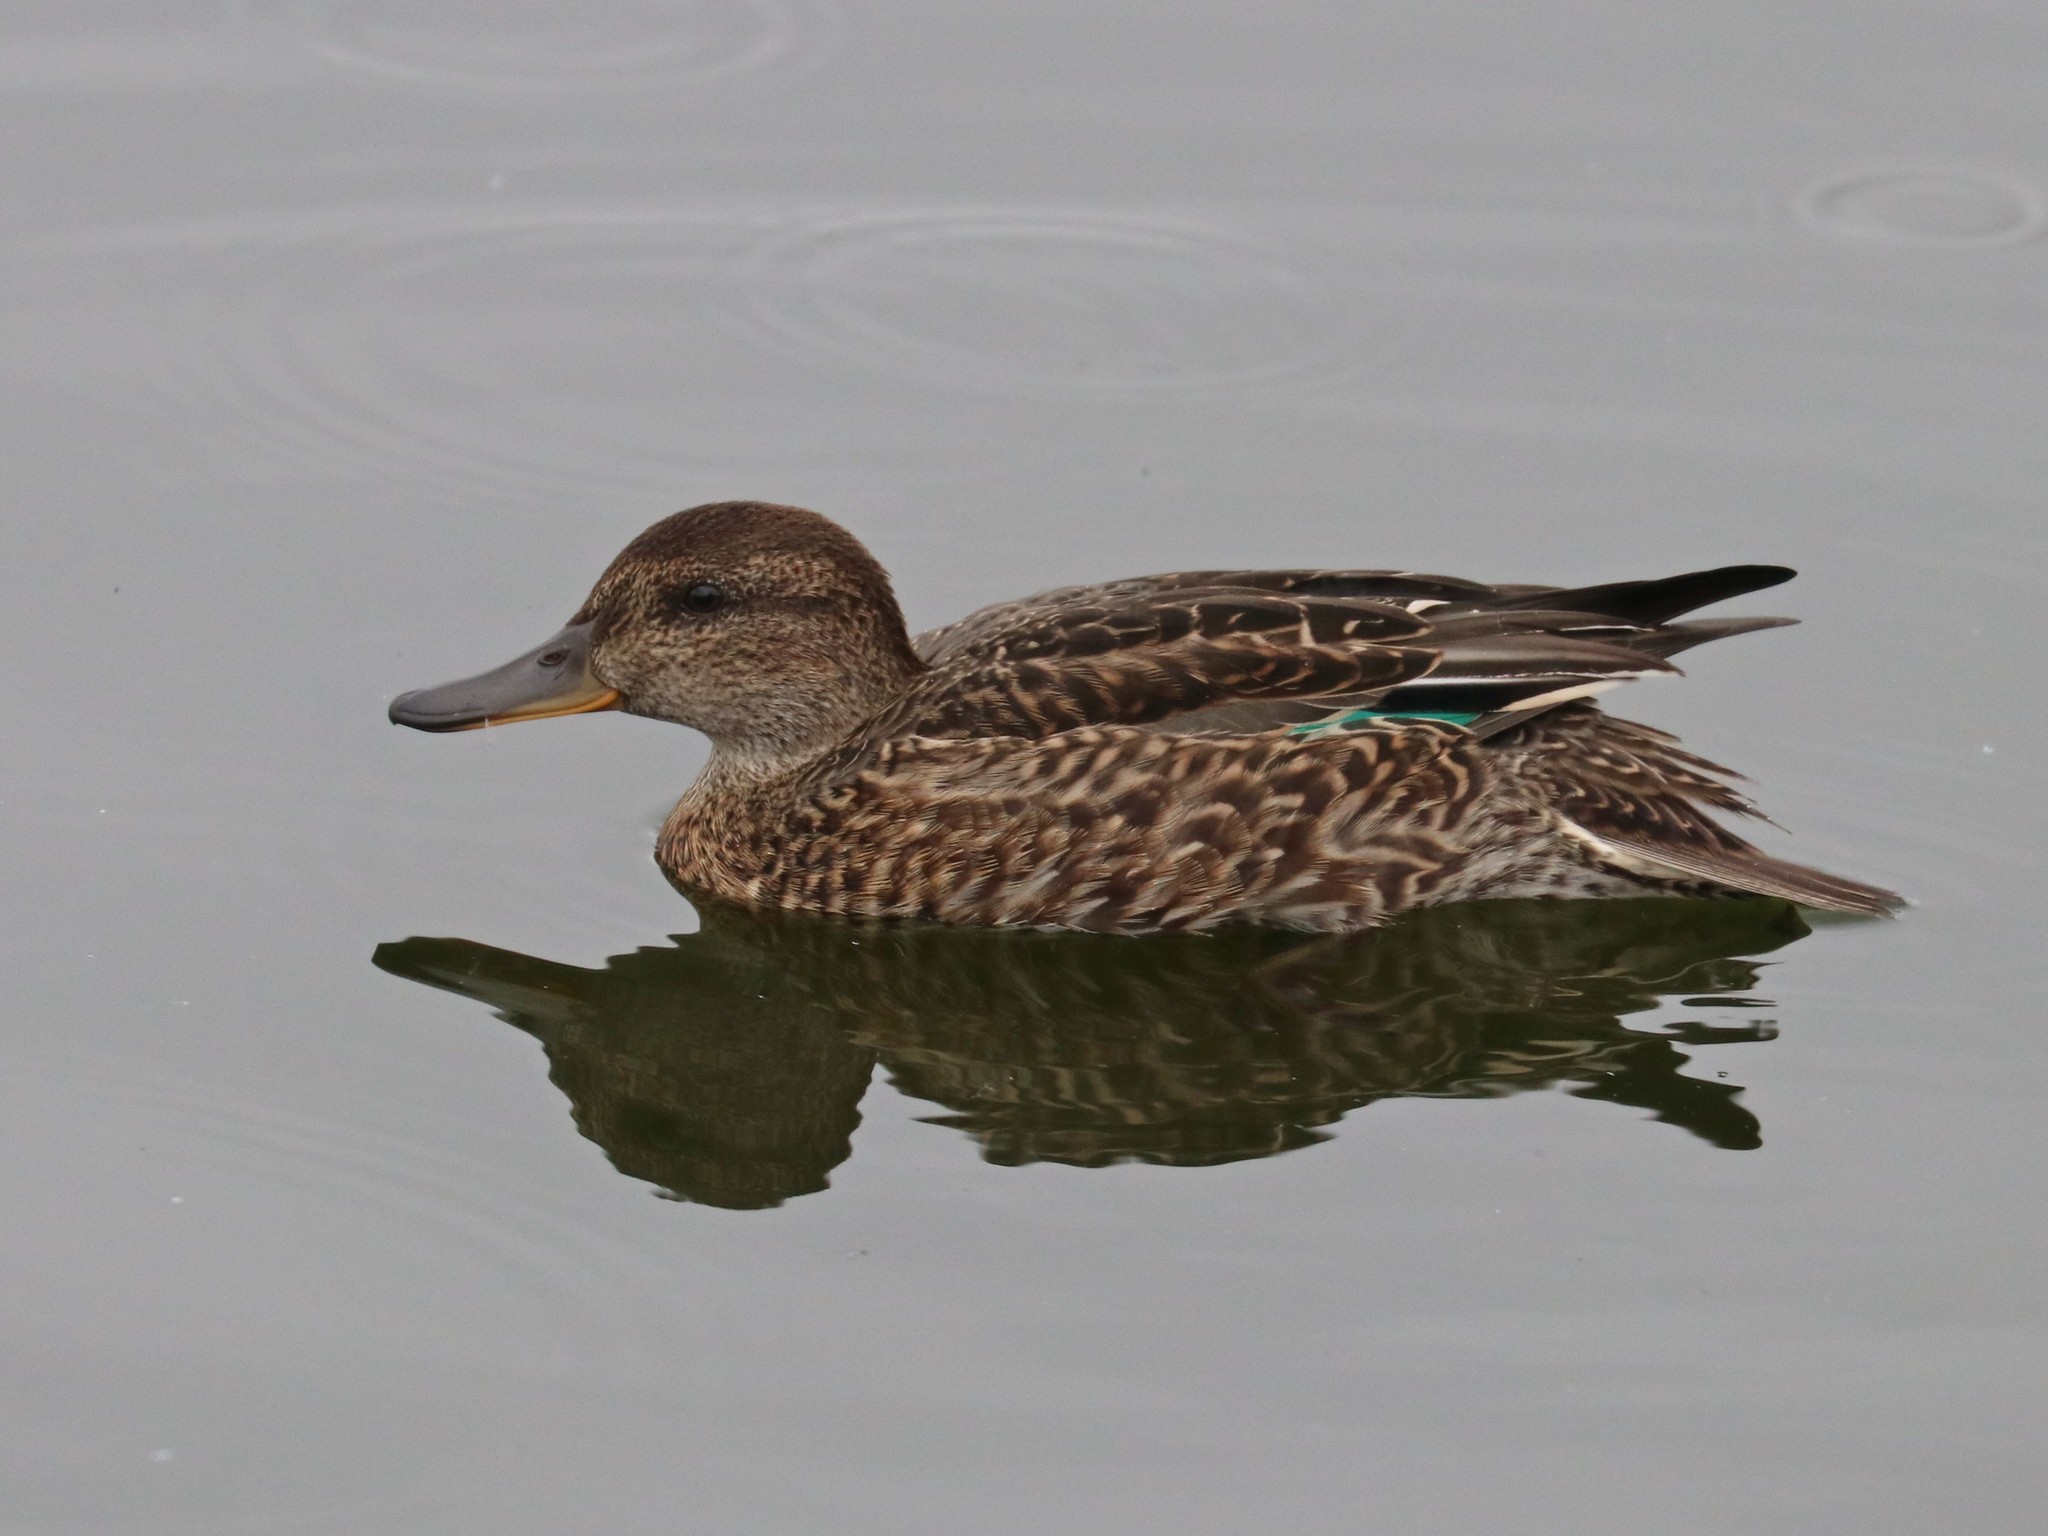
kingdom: Animalia
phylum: Chordata
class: Aves
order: Anseriformes
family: Anatidae
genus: Anas
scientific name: Anas crecca
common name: Eurasian teal
